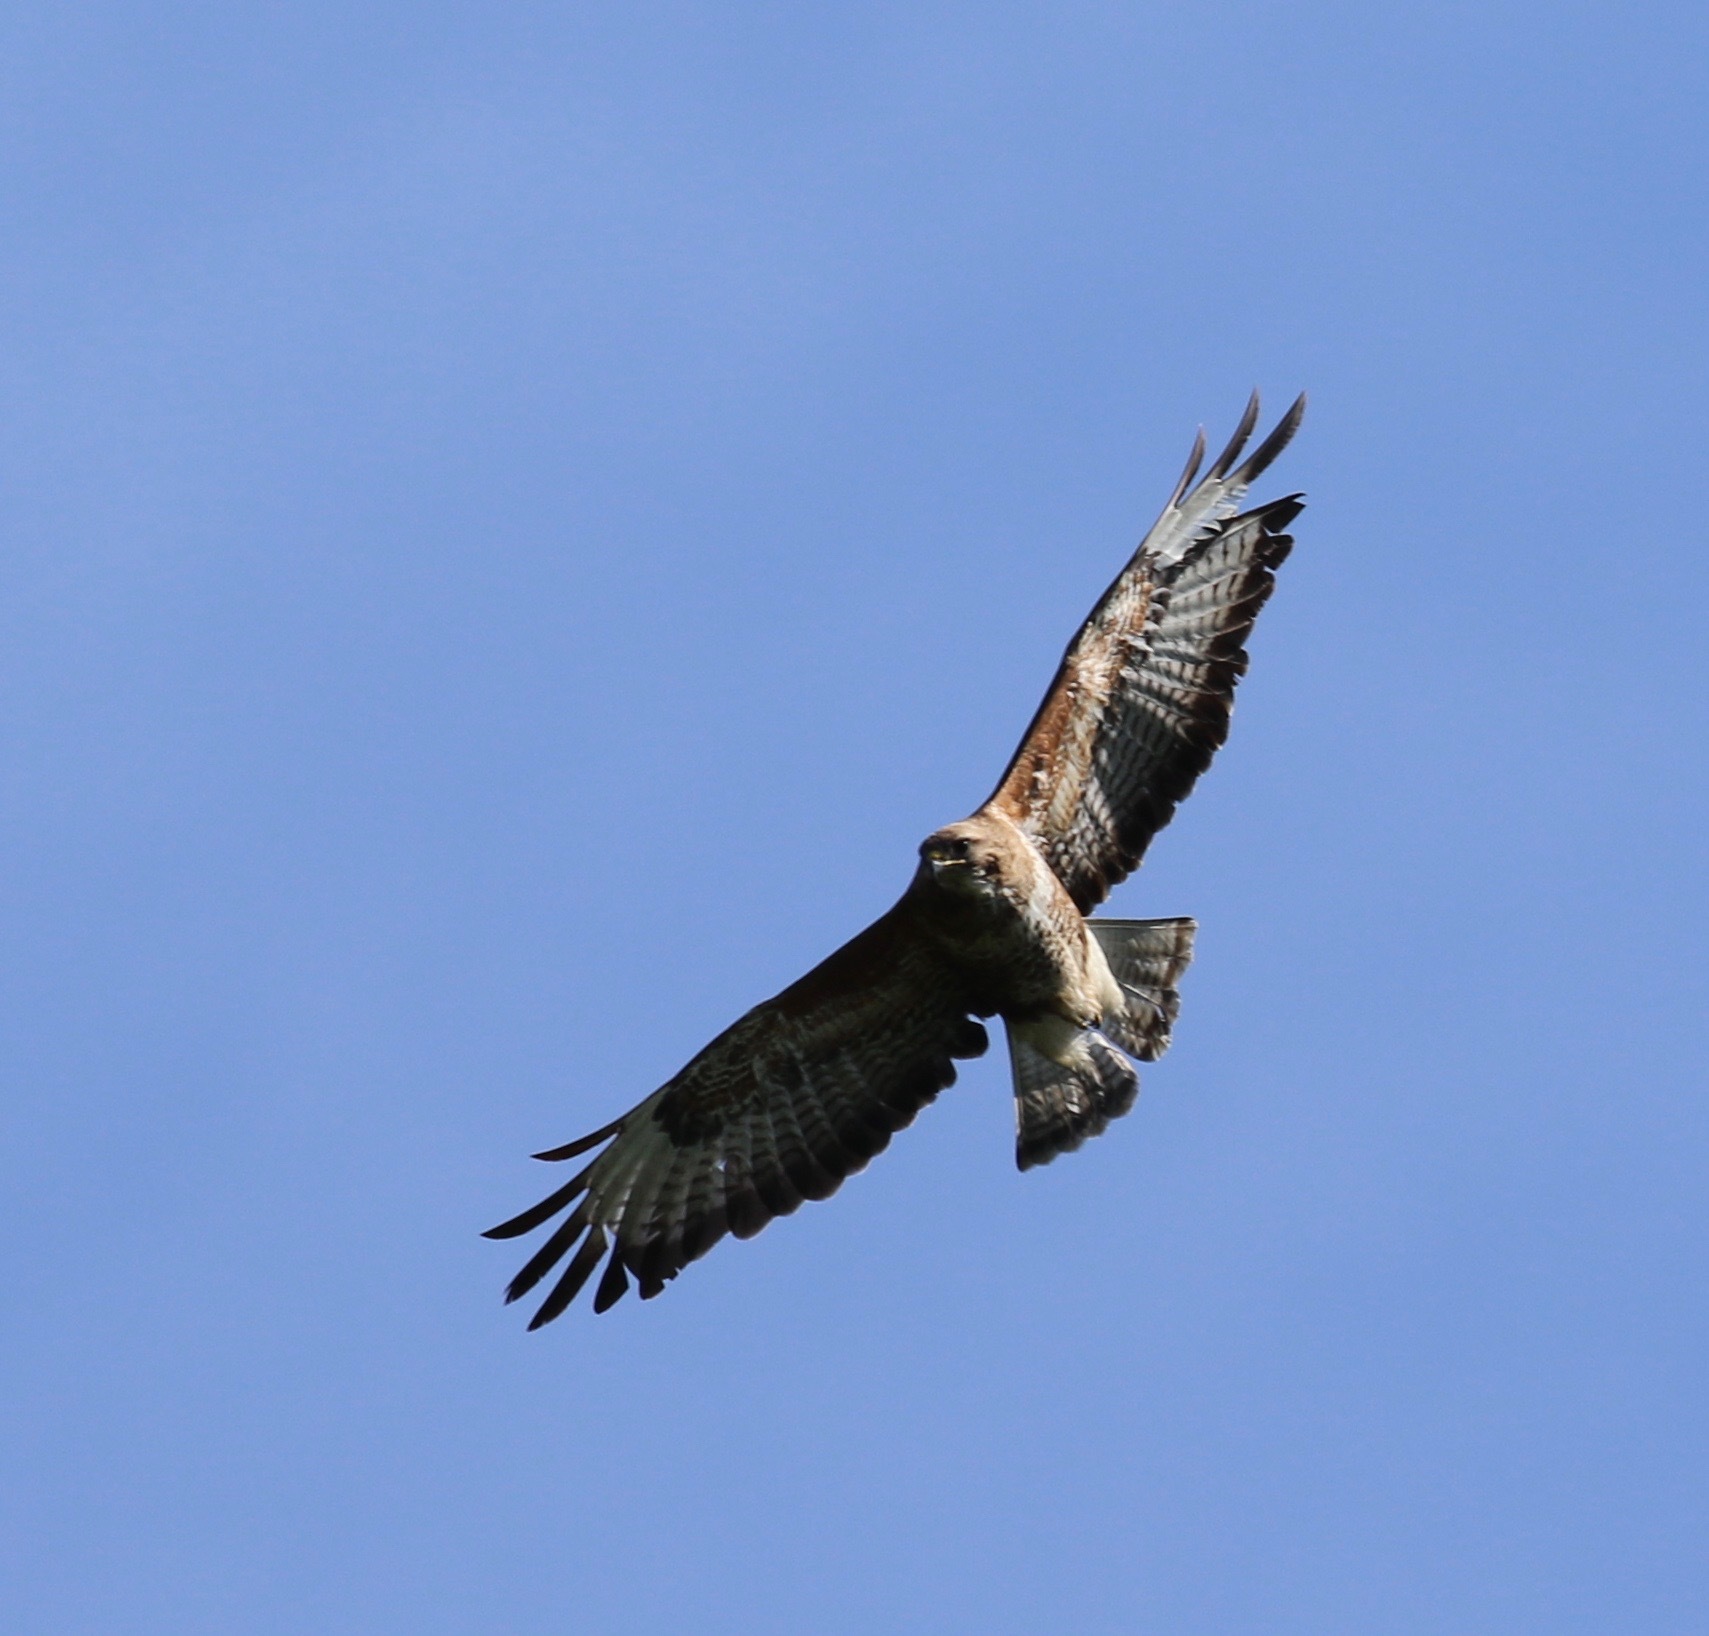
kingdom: Animalia
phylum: Chordata
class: Aves
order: Accipitriformes
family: Accipitridae
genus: Buteo
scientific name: Buteo buteo
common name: Common buzzard
